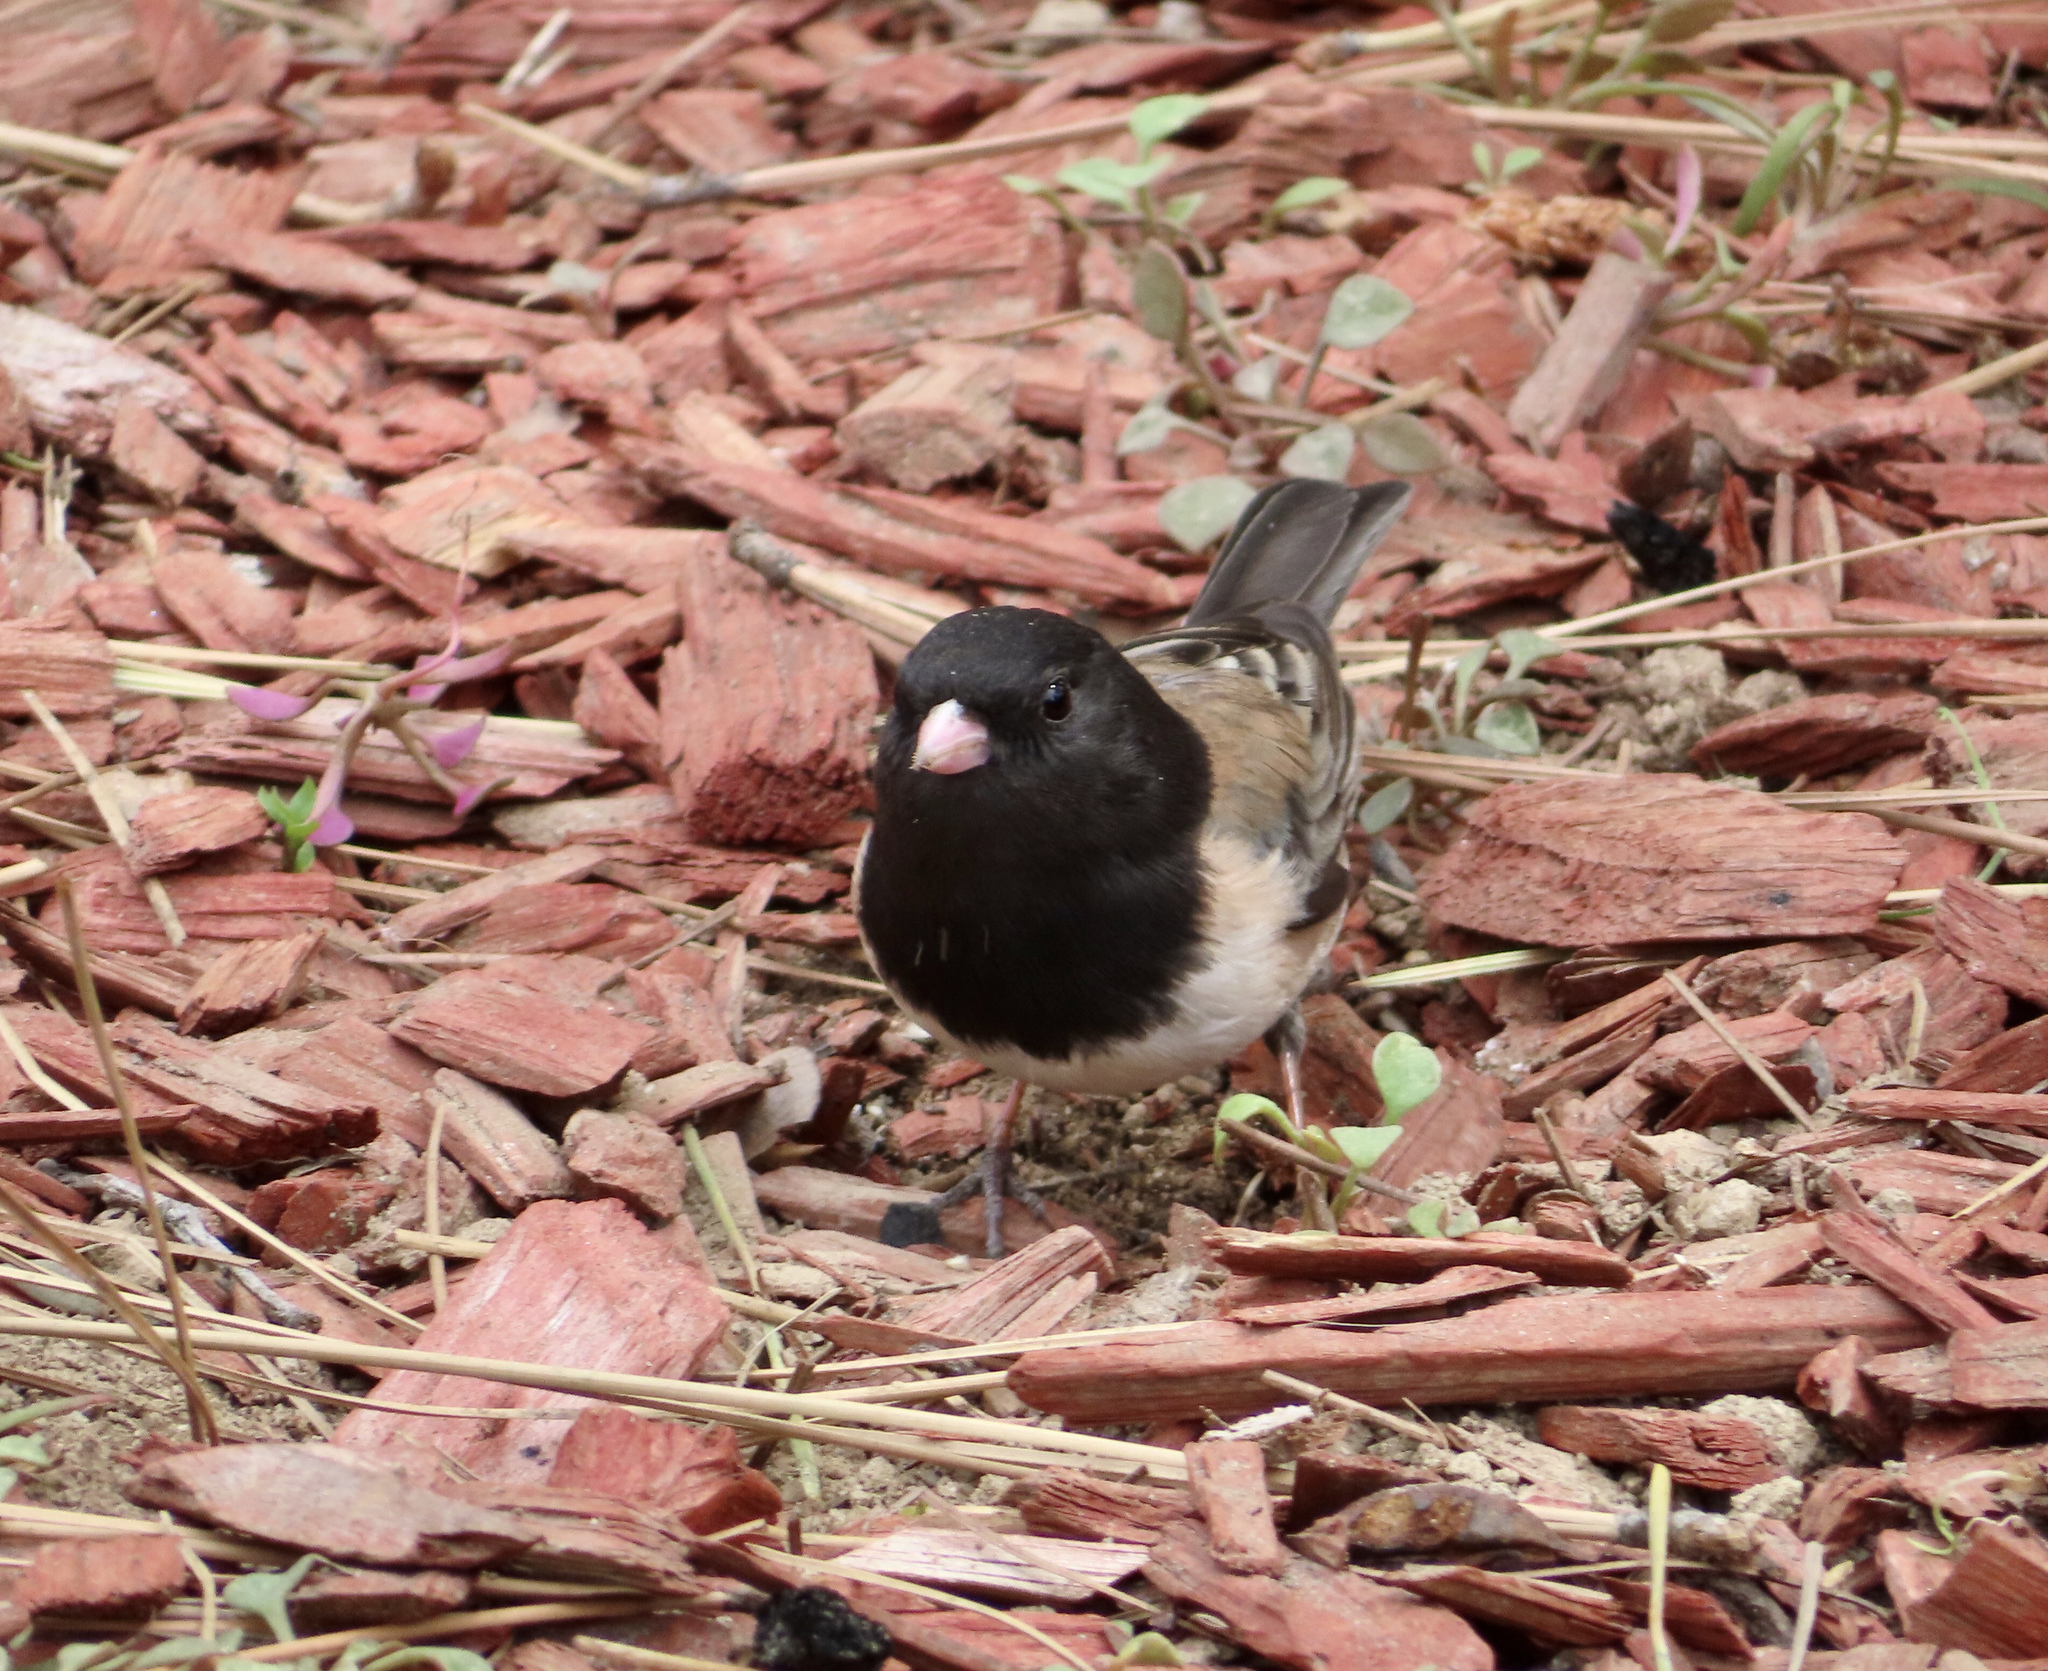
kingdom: Animalia
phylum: Chordata
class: Aves
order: Passeriformes
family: Passerellidae
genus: Junco
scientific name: Junco hyemalis
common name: Dark-eyed junco
